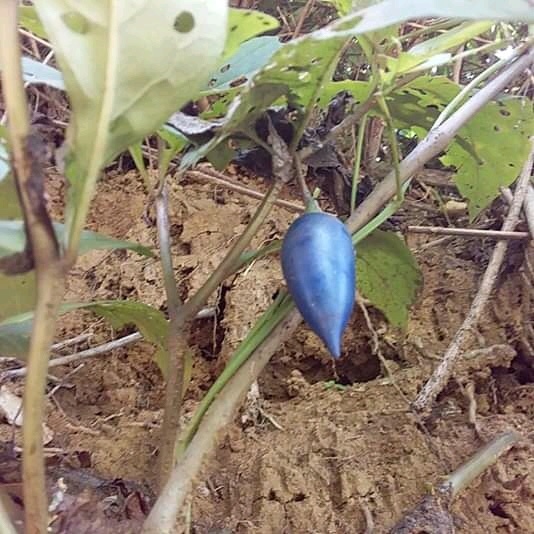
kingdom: Plantae
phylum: Tracheophyta
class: Magnoliopsida
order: Solanales
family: Solanaceae
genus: Lycianthes
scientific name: Lycianthes acapulcensis
